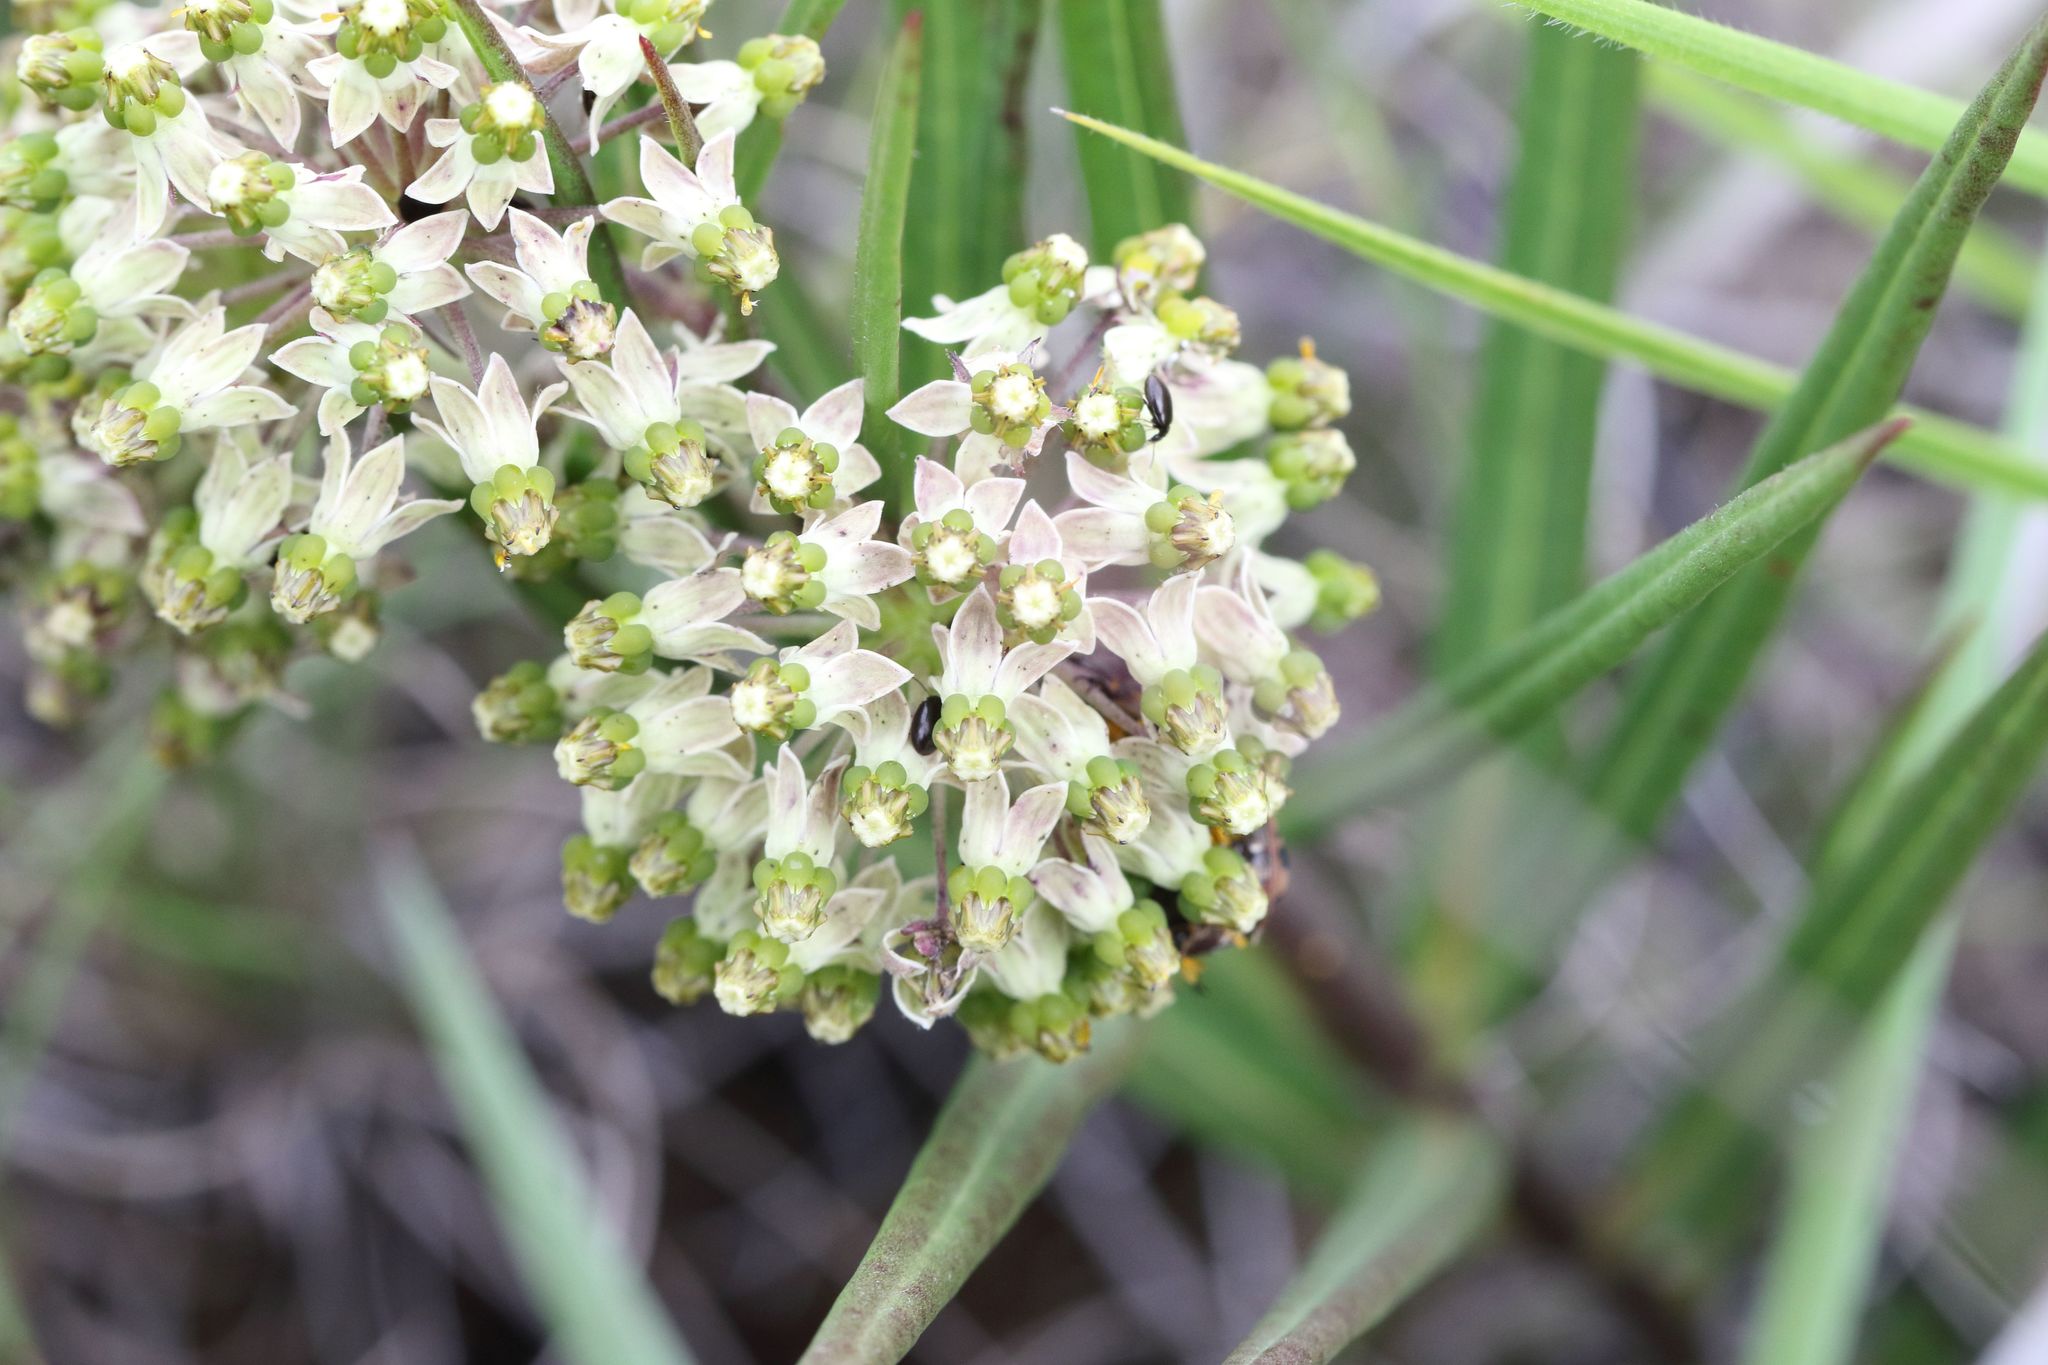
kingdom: Plantae
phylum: Tracheophyta
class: Magnoliopsida
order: Gentianales
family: Apocynaceae
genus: Xysmalobium
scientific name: Xysmalobium involucratum
